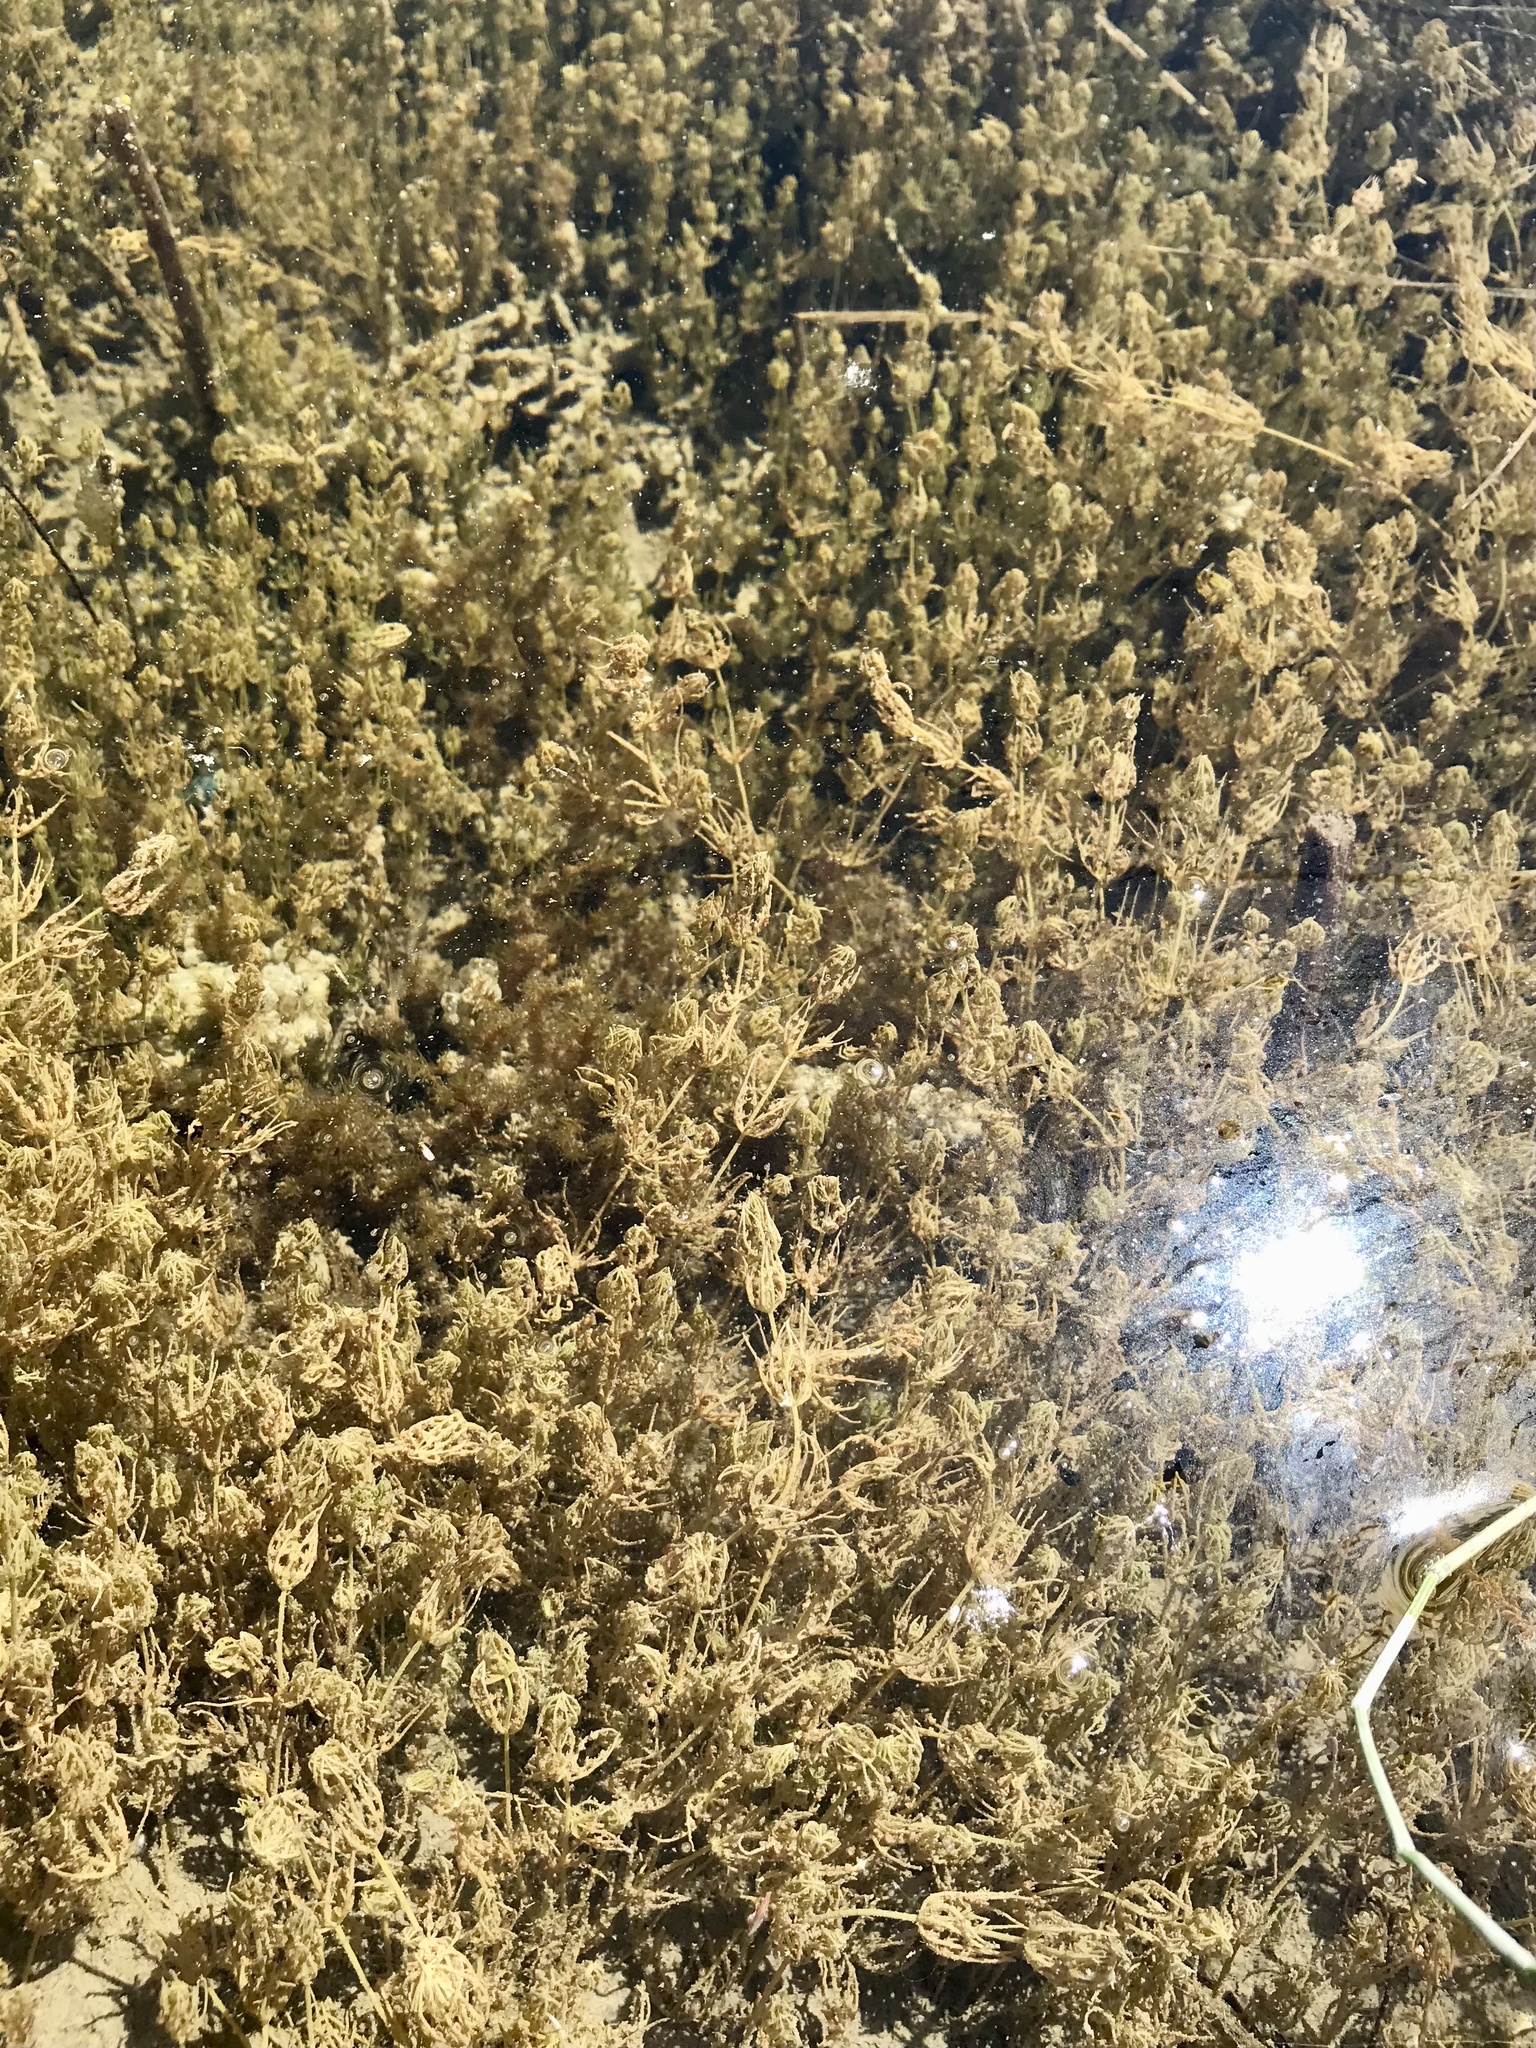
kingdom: Plantae
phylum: Charophyta
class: Charophyceae
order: Charales
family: Characeae
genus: Chara
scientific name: Chara
